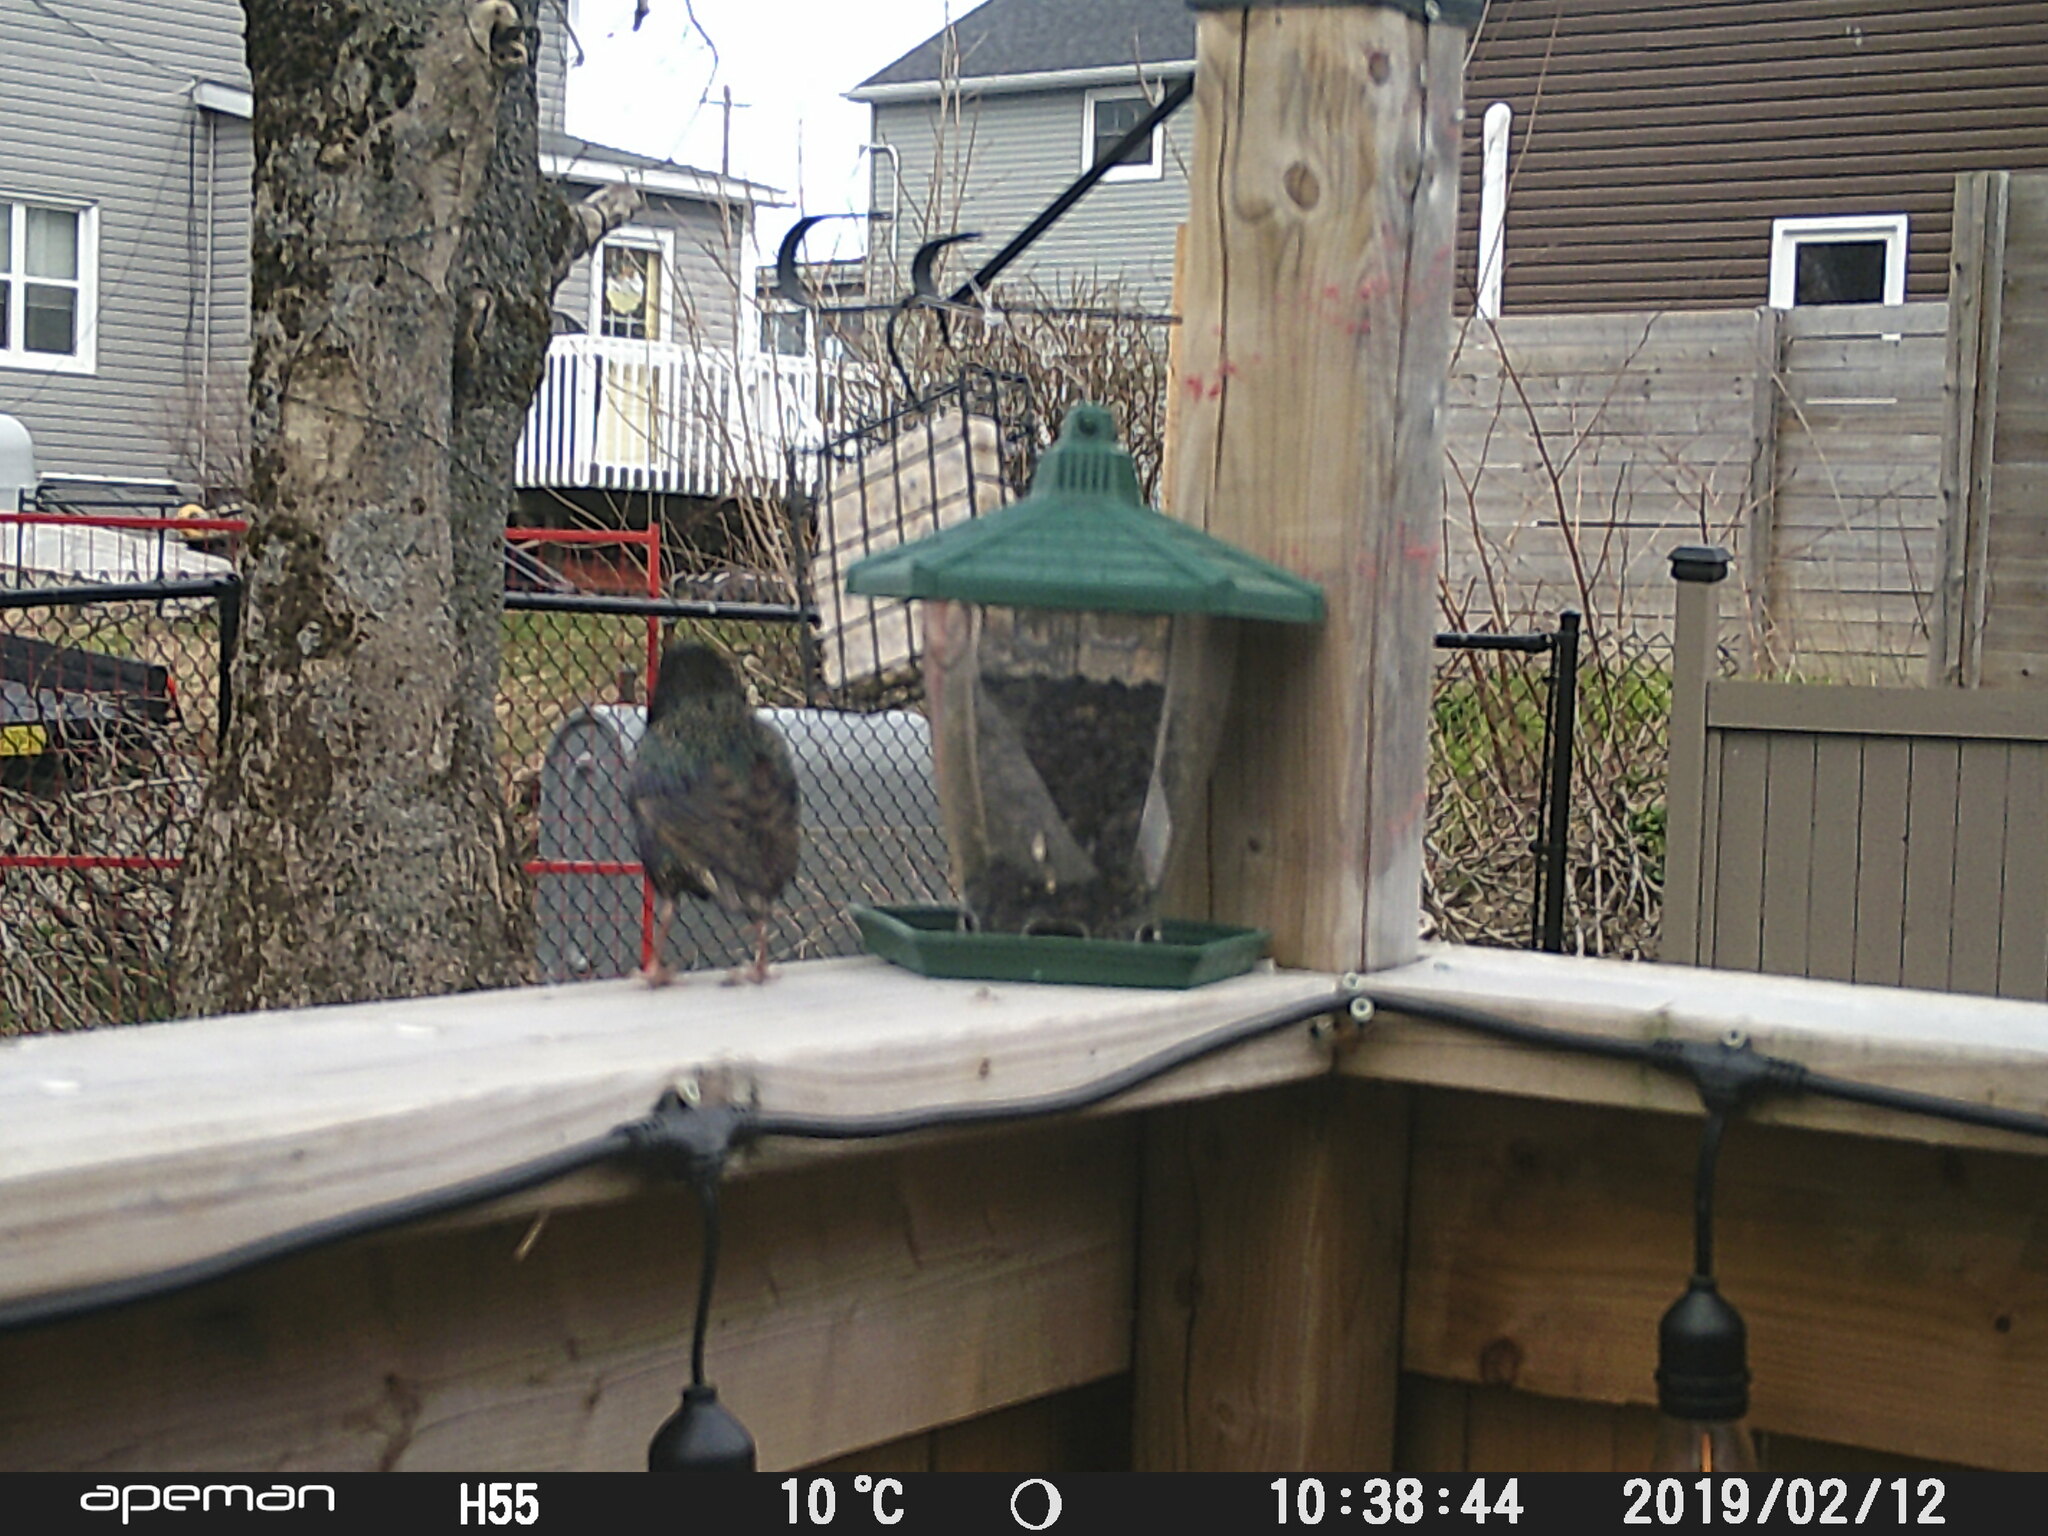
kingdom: Animalia
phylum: Chordata
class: Aves
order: Passeriformes
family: Sturnidae
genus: Sturnus
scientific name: Sturnus vulgaris
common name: Common starling
